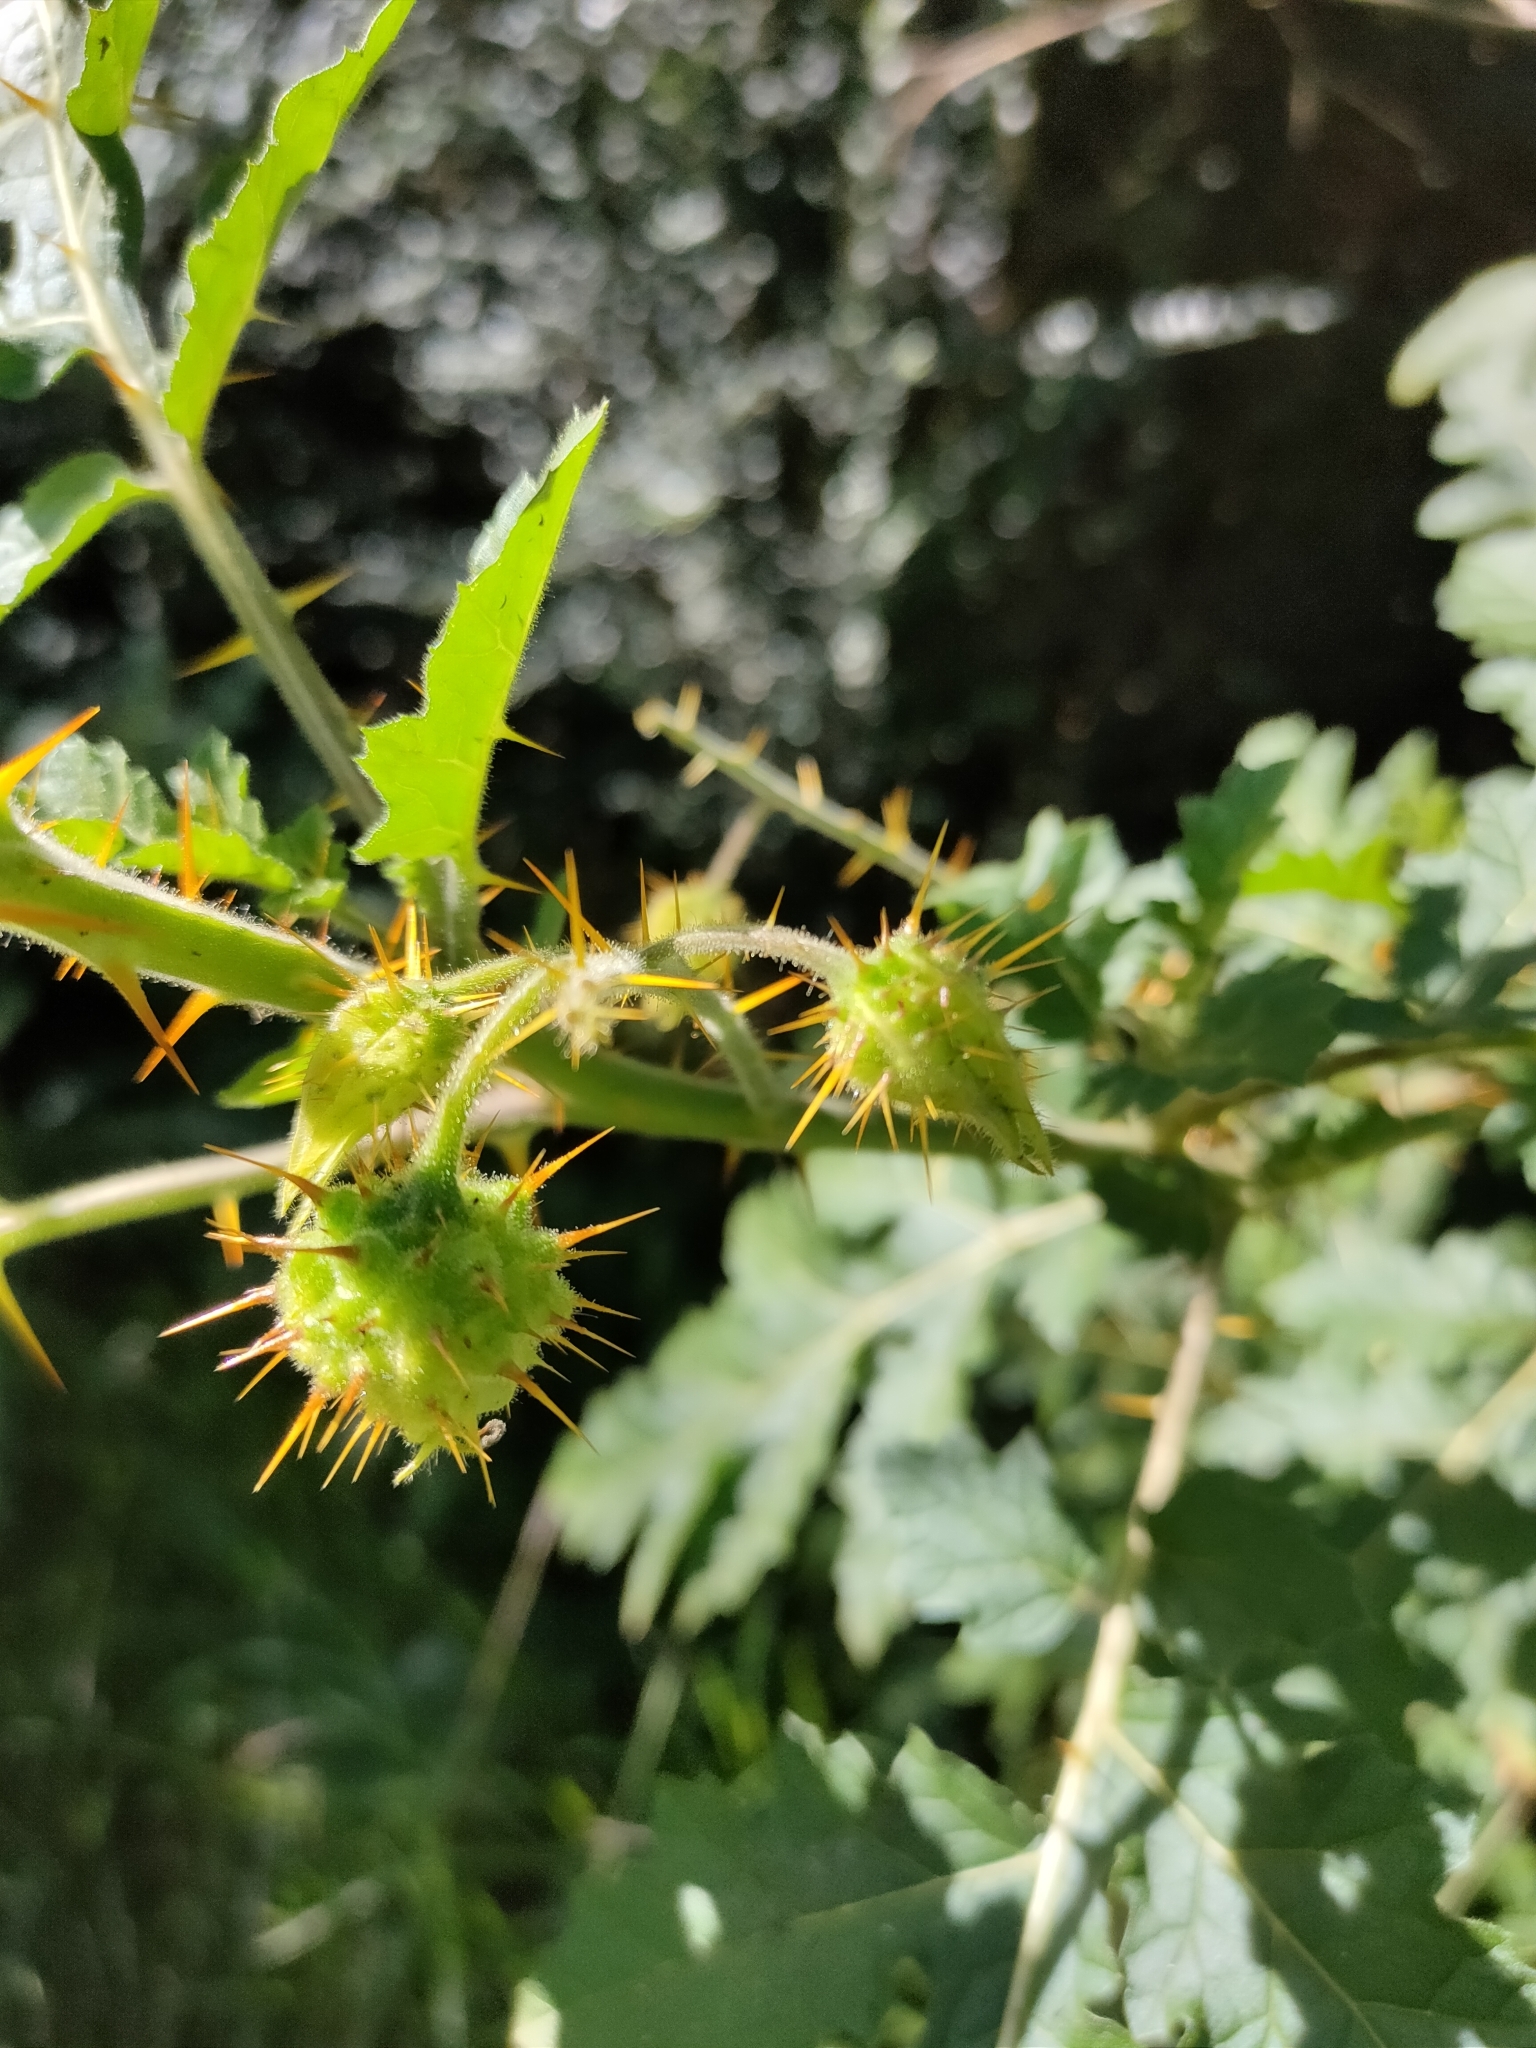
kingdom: Plantae
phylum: Tracheophyta
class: Magnoliopsida
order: Solanales
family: Solanaceae
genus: Solanum
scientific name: Solanum sisymbriifolium
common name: Red buffalo-bur
